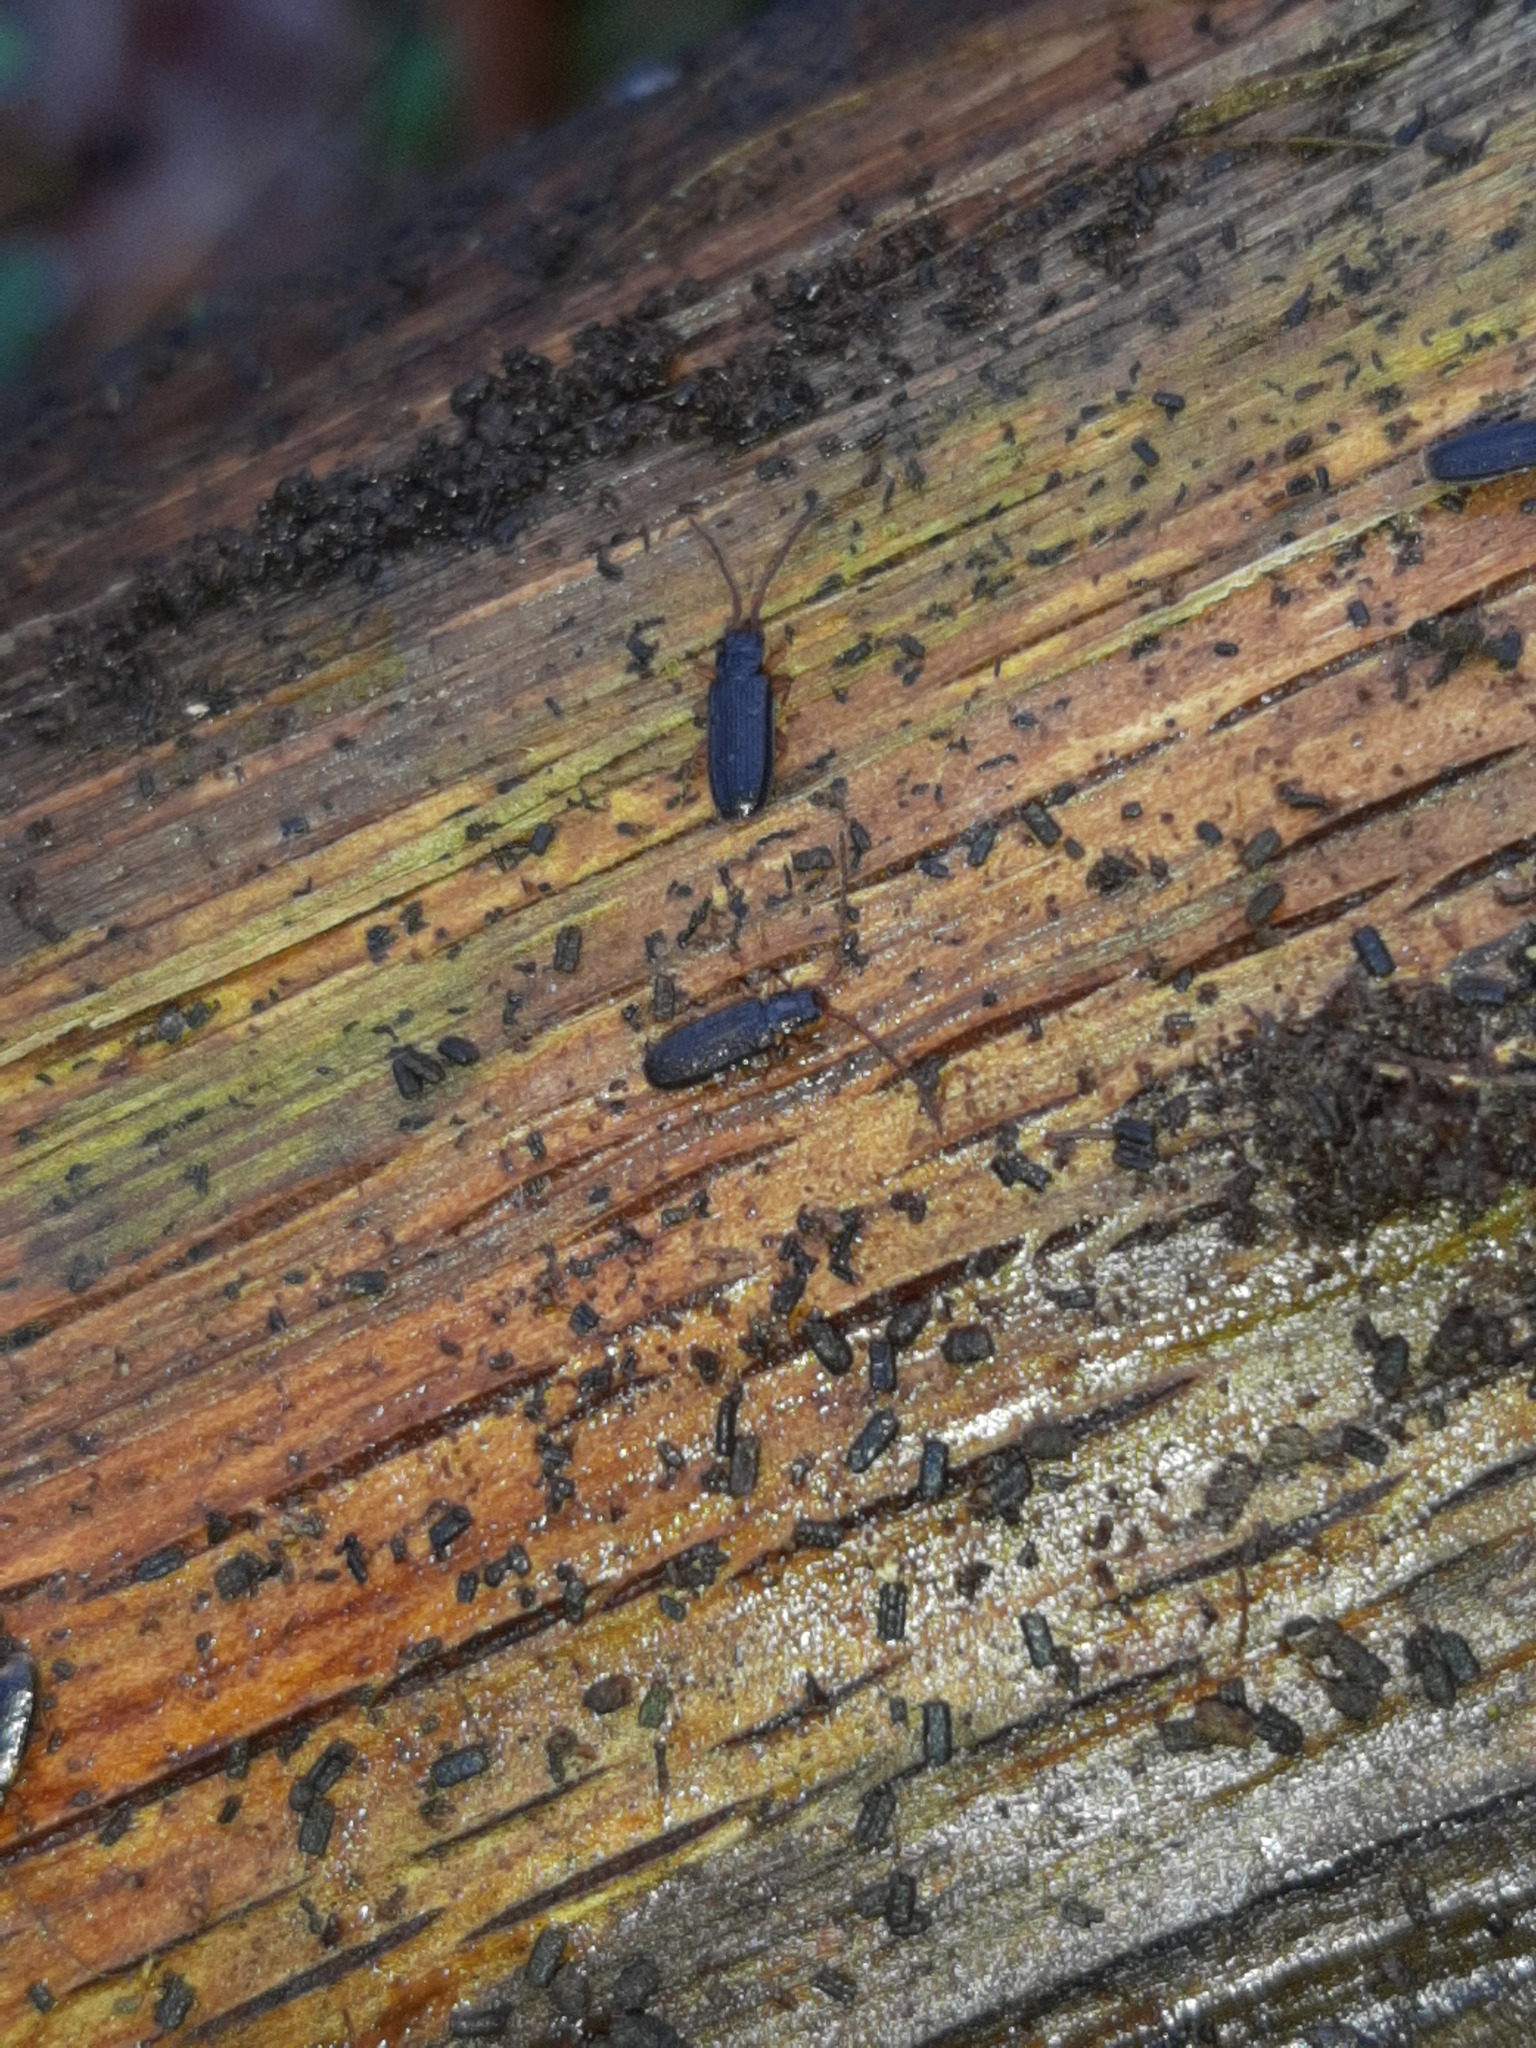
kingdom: Animalia
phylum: Arthropoda
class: Insecta
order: Coleoptera
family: Silvanidae
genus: Uleiota
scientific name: Uleiota planatus
